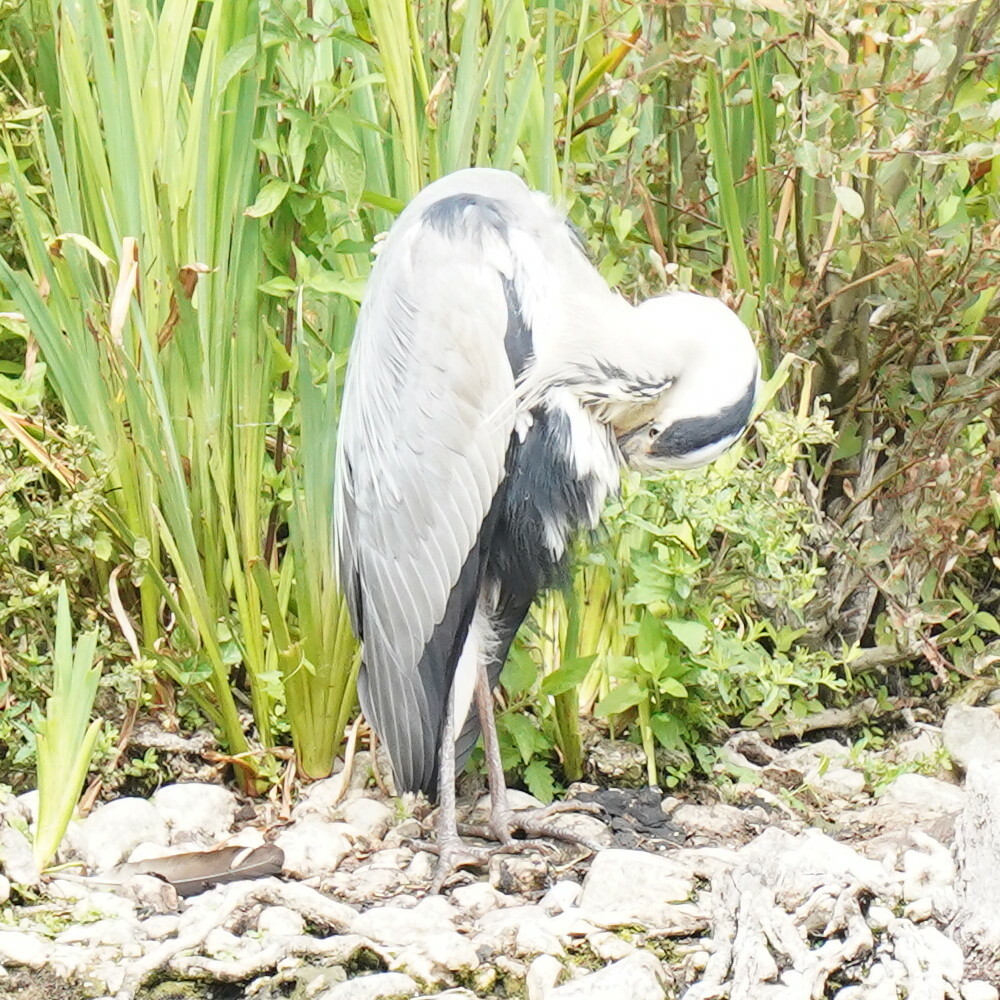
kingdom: Animalia
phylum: Chordata
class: Aves
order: Pelecaniformes
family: Ardeidae
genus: Ardea
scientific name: Ardea cinerea
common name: Grey heron
